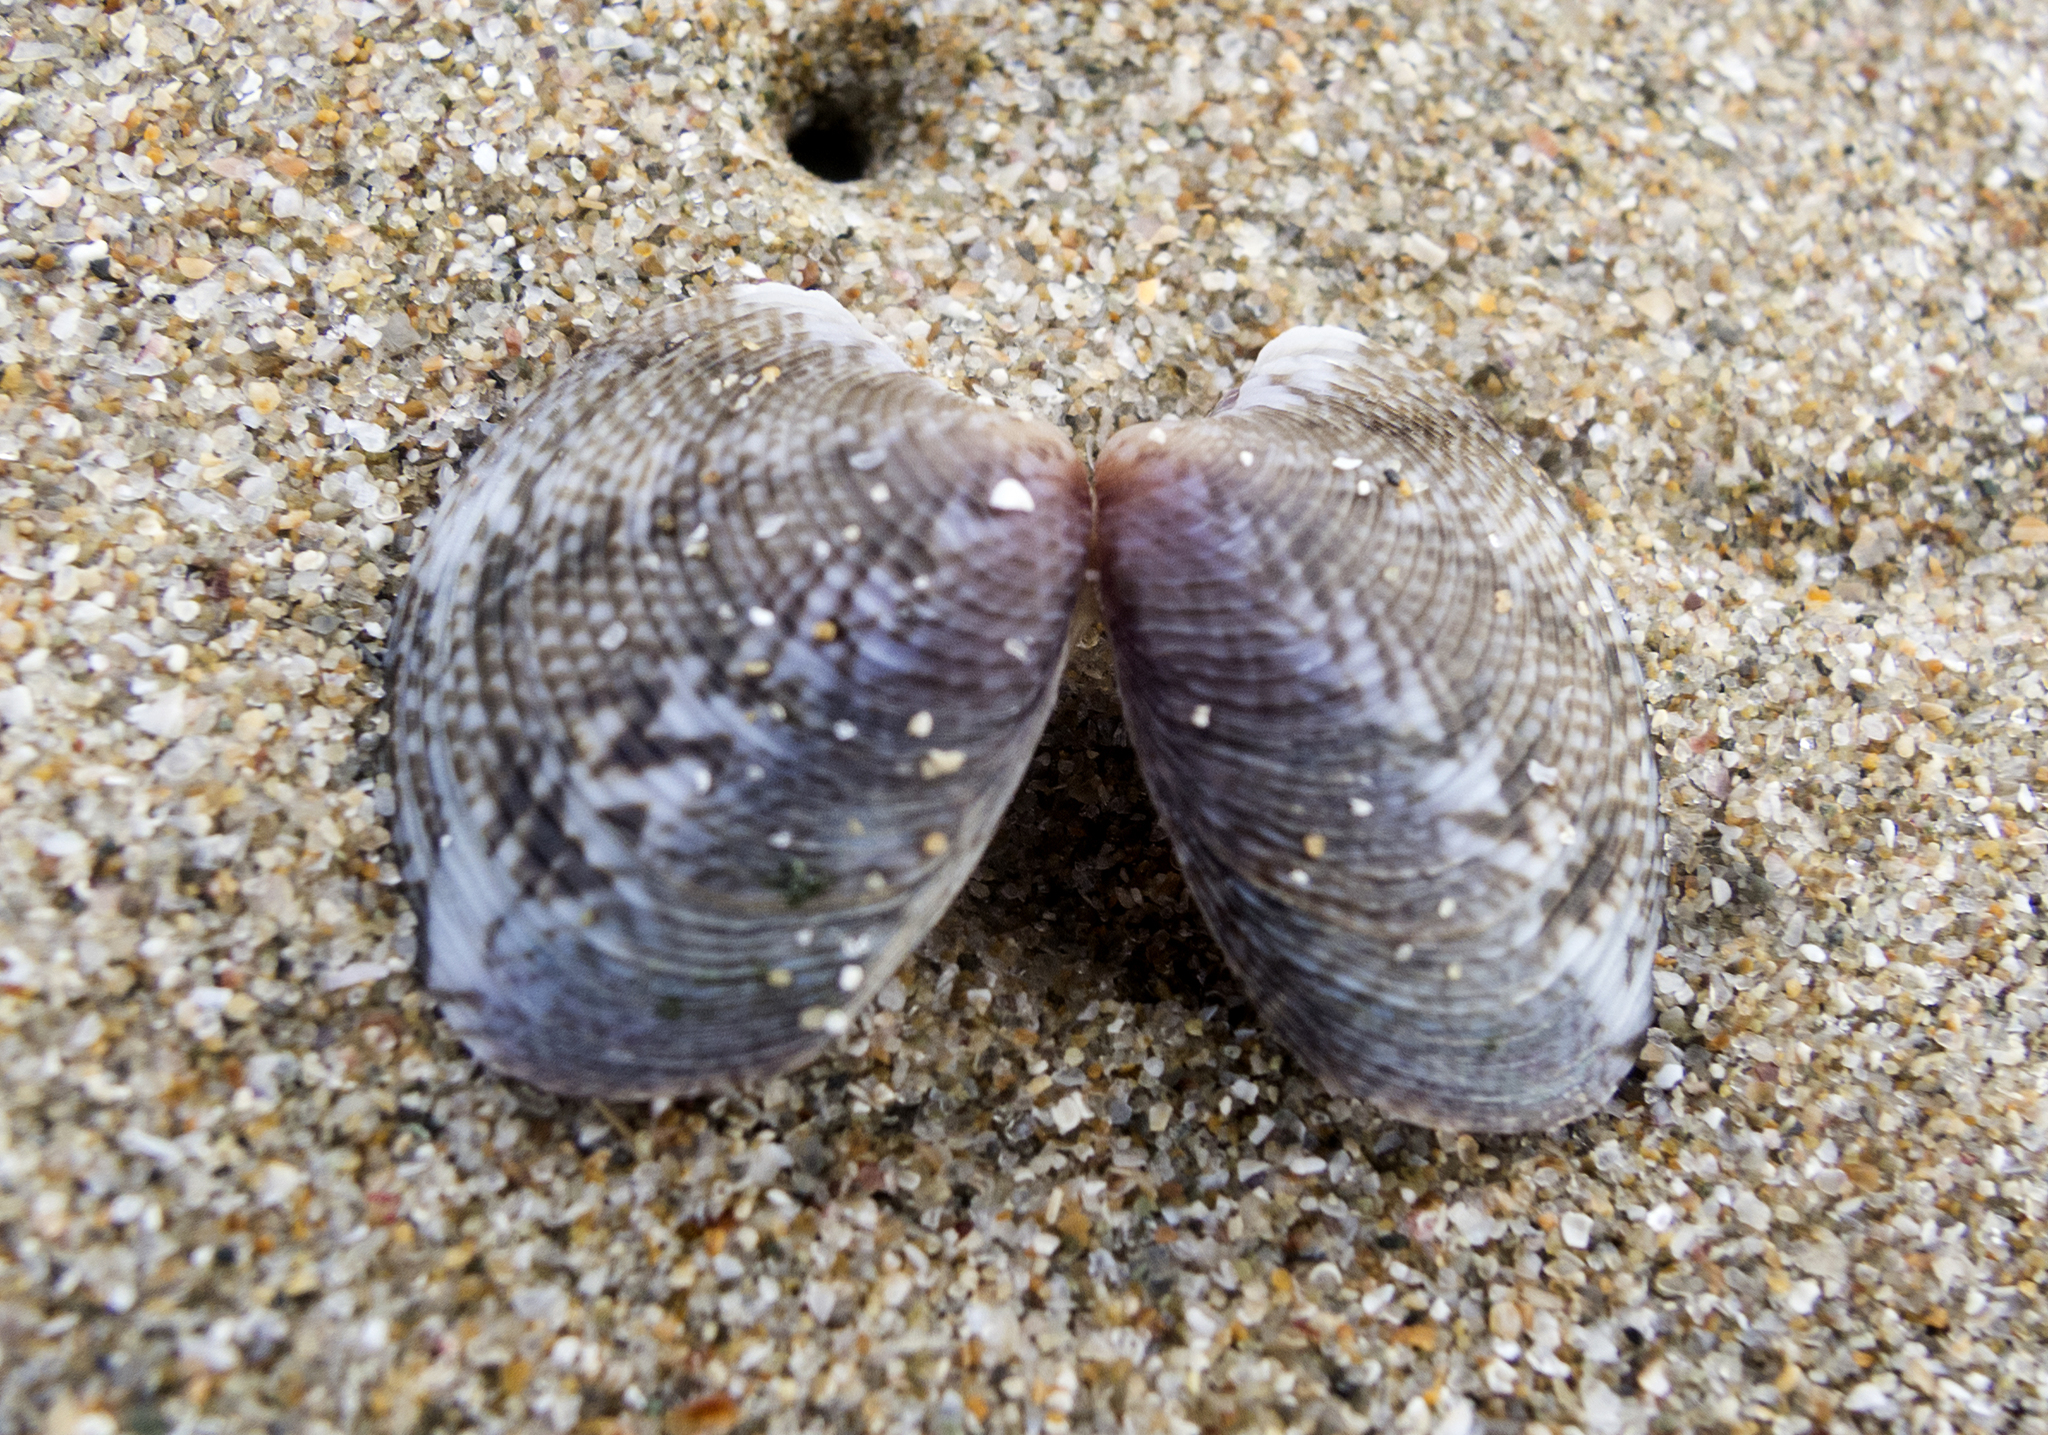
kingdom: Animalia
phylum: Mollusca
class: Bivalvia
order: Venerida
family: Veneridae
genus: Chamelea
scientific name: Chamelea gallina
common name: Chicken venus
